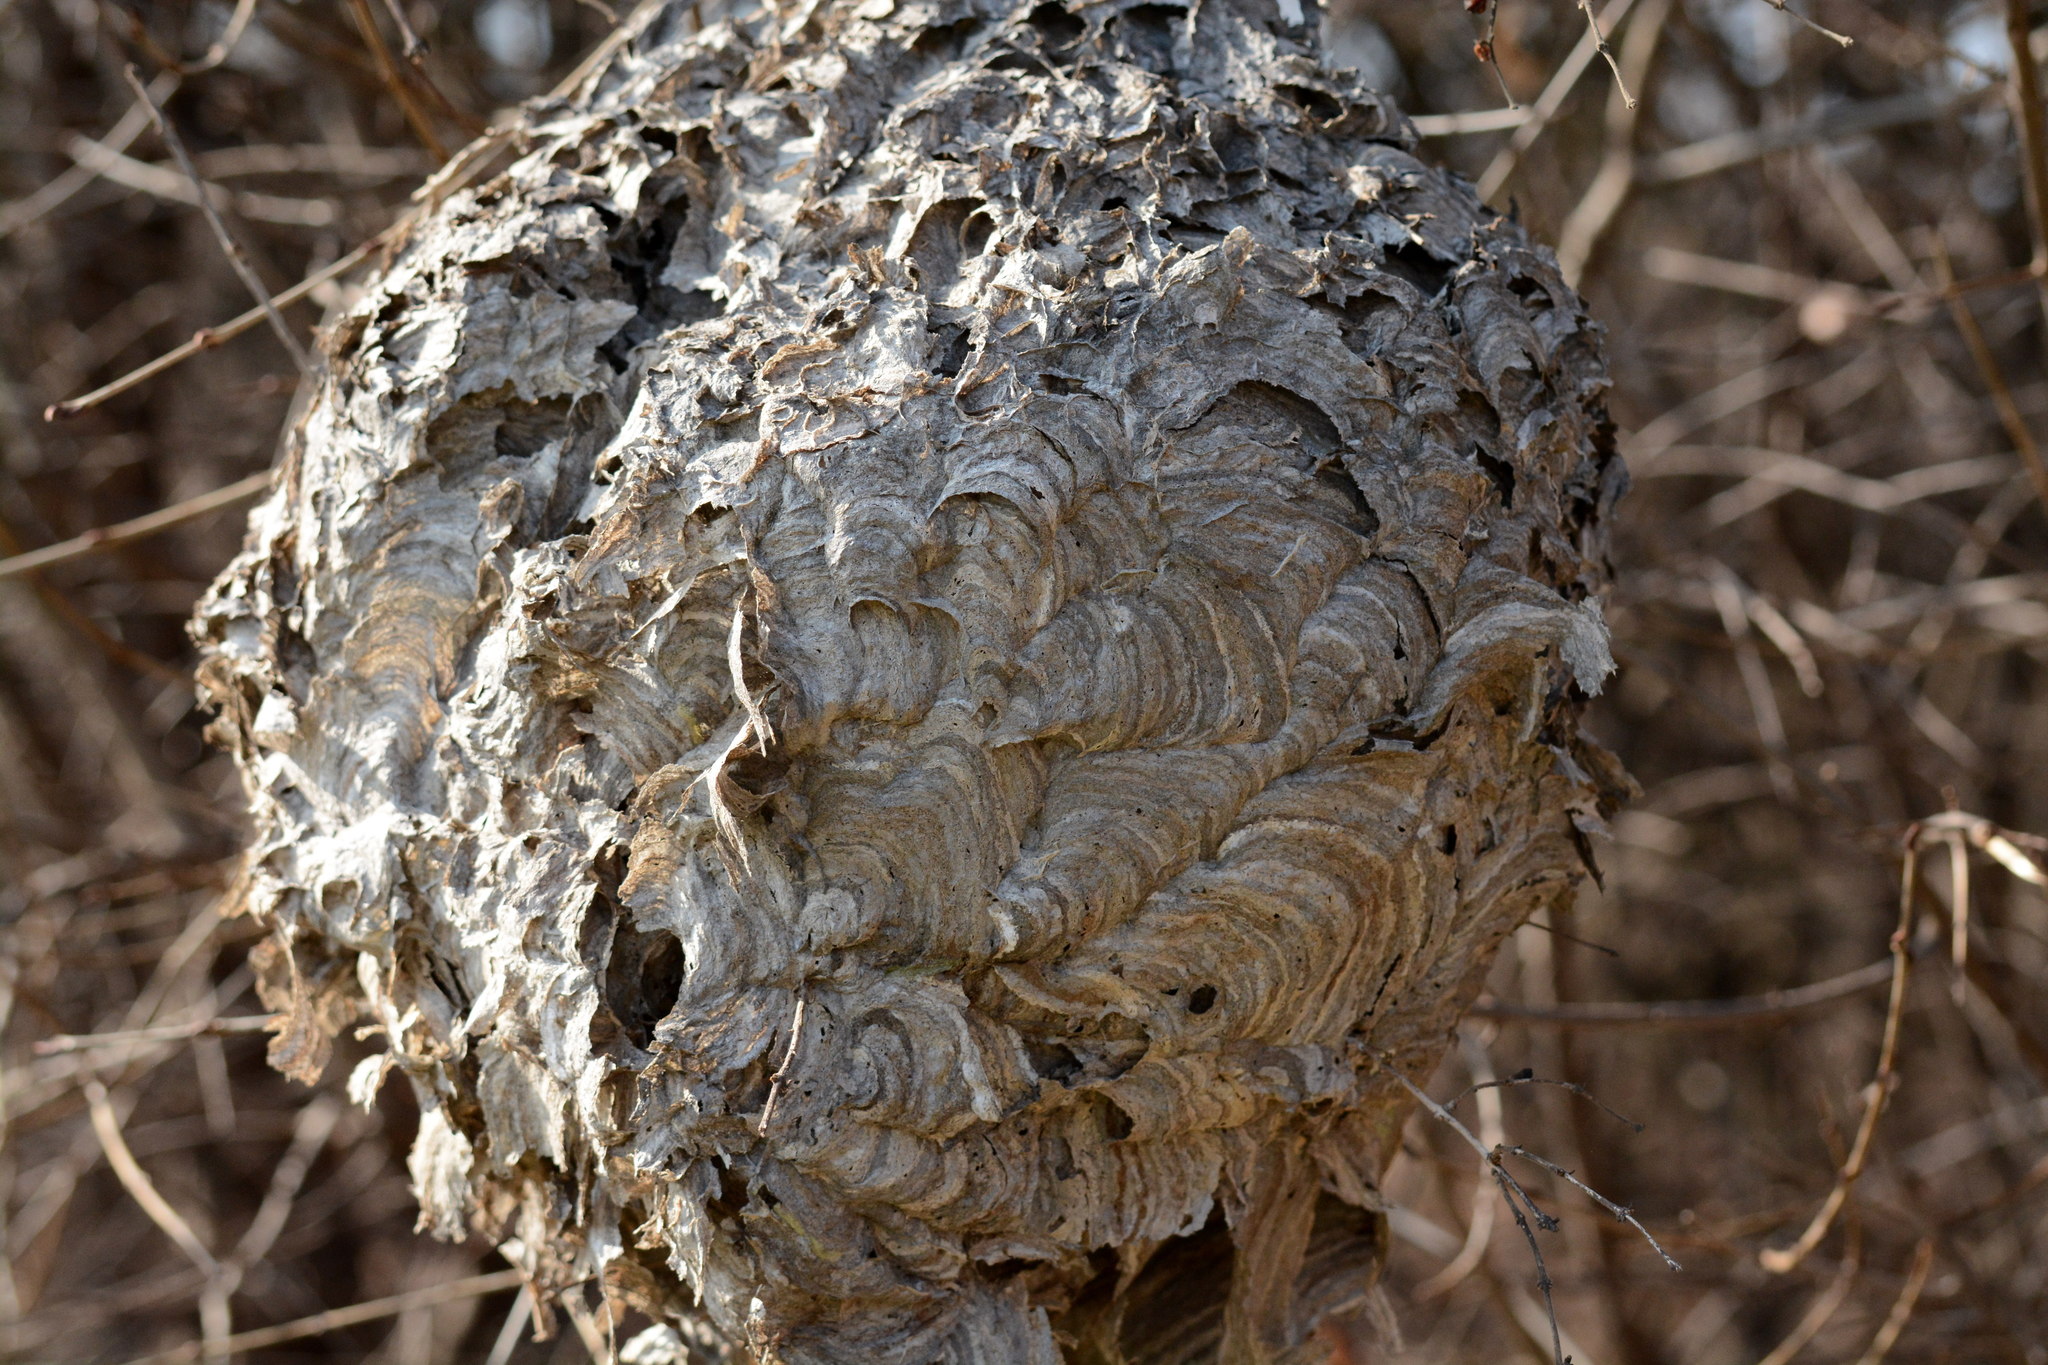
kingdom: Animalia
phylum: Arthropoda
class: Insecta
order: Hymenoptera
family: Vespidae
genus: Dolichovespula
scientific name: Dolichovespula maculata
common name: Bald-faced hornet
